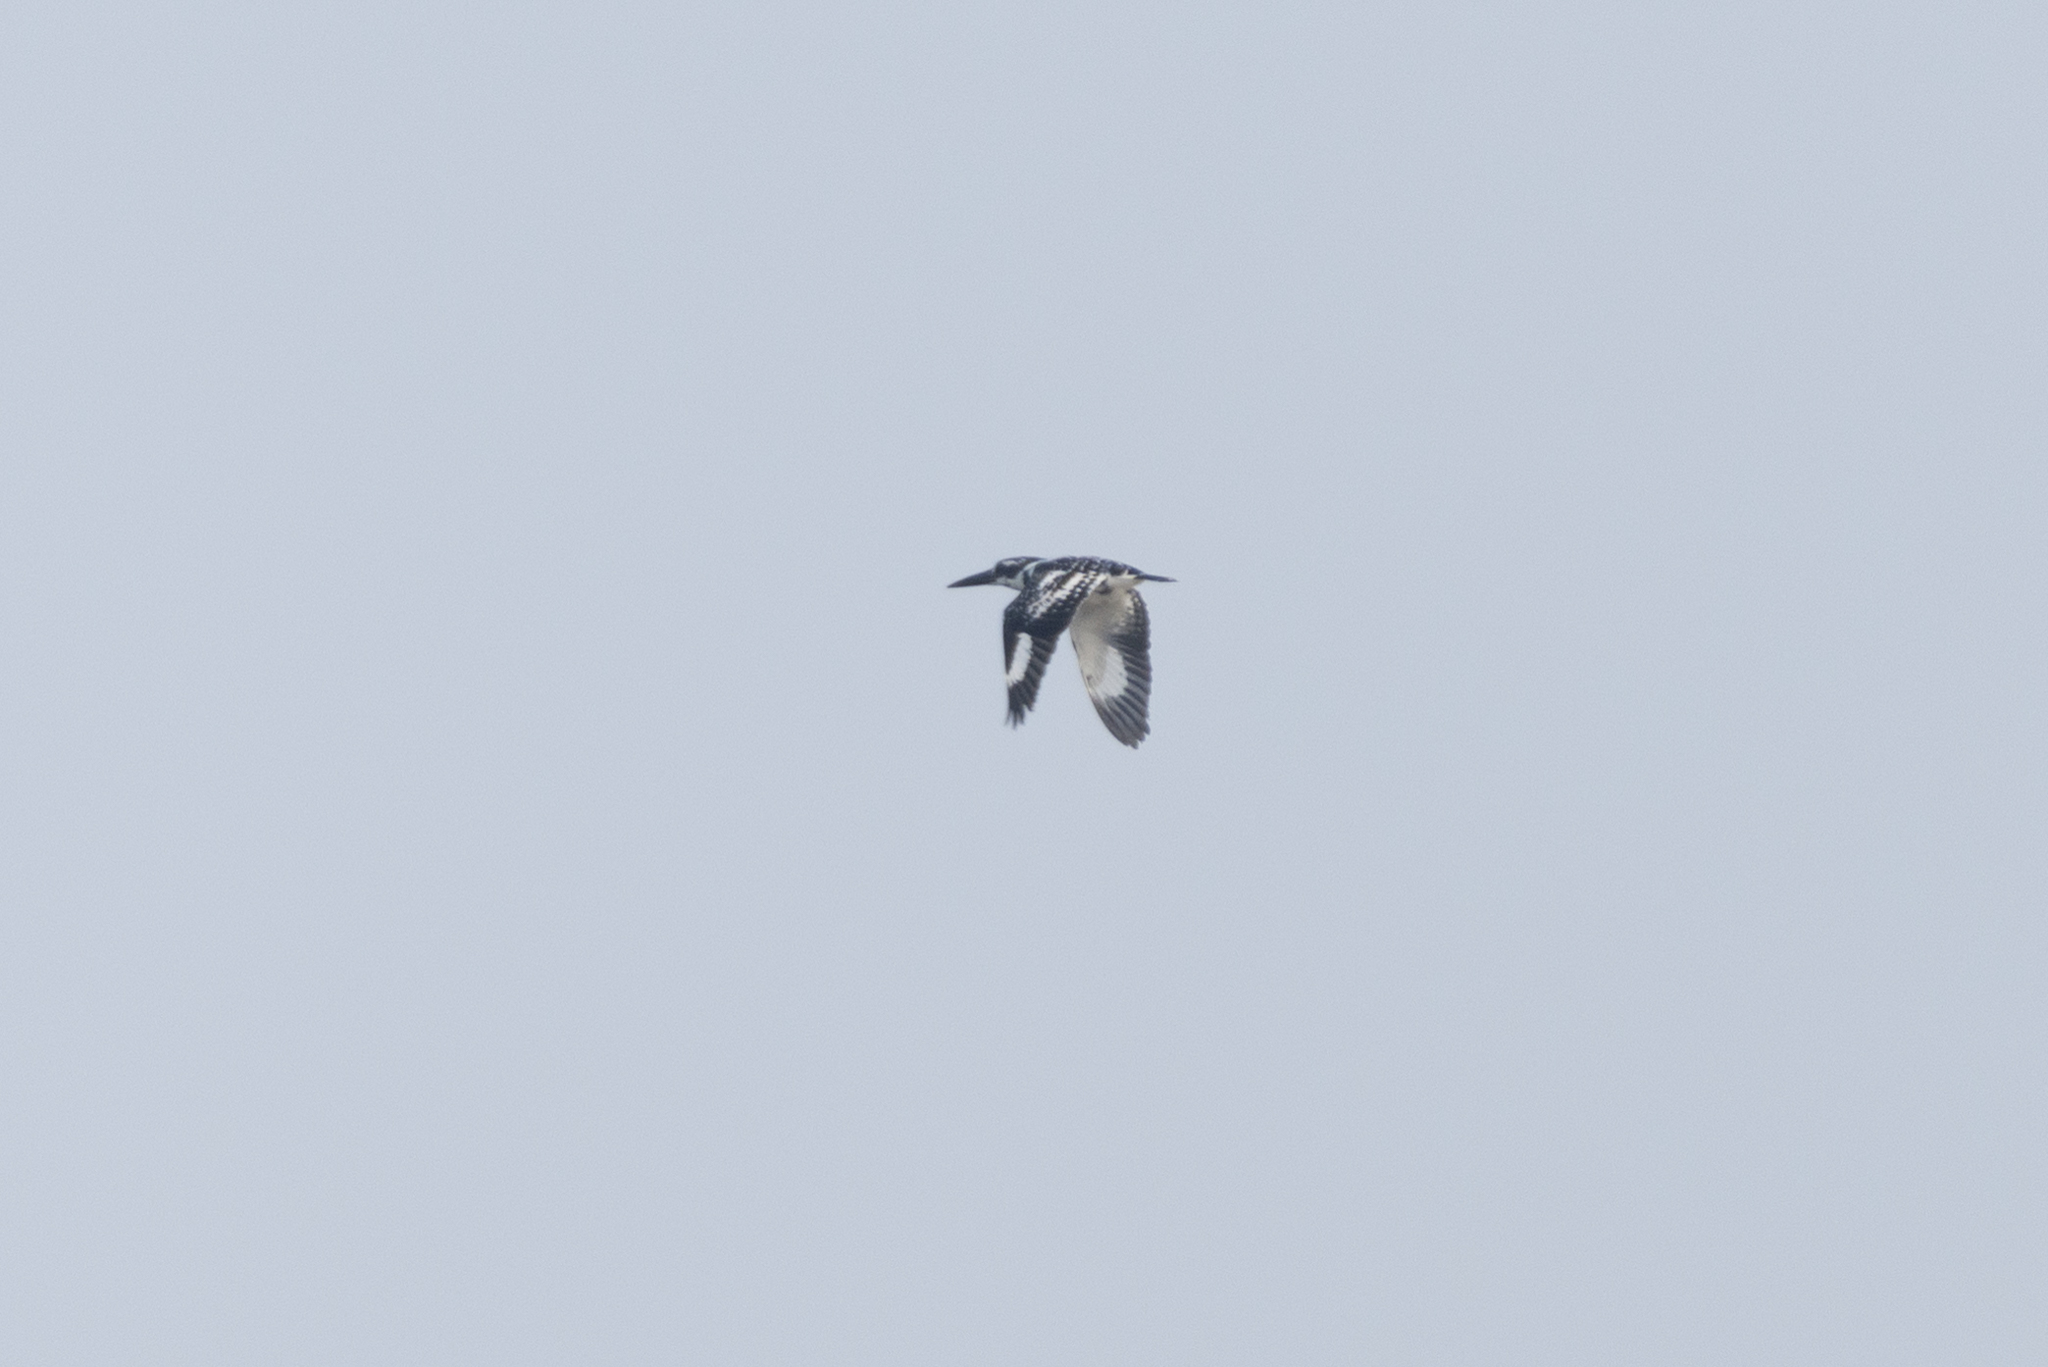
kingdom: Animalia
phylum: Chordata
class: Aves
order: Coraciiformes
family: Alcedinidae
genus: Ceryle
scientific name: Ceryle rudis
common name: Pied kingfisher
